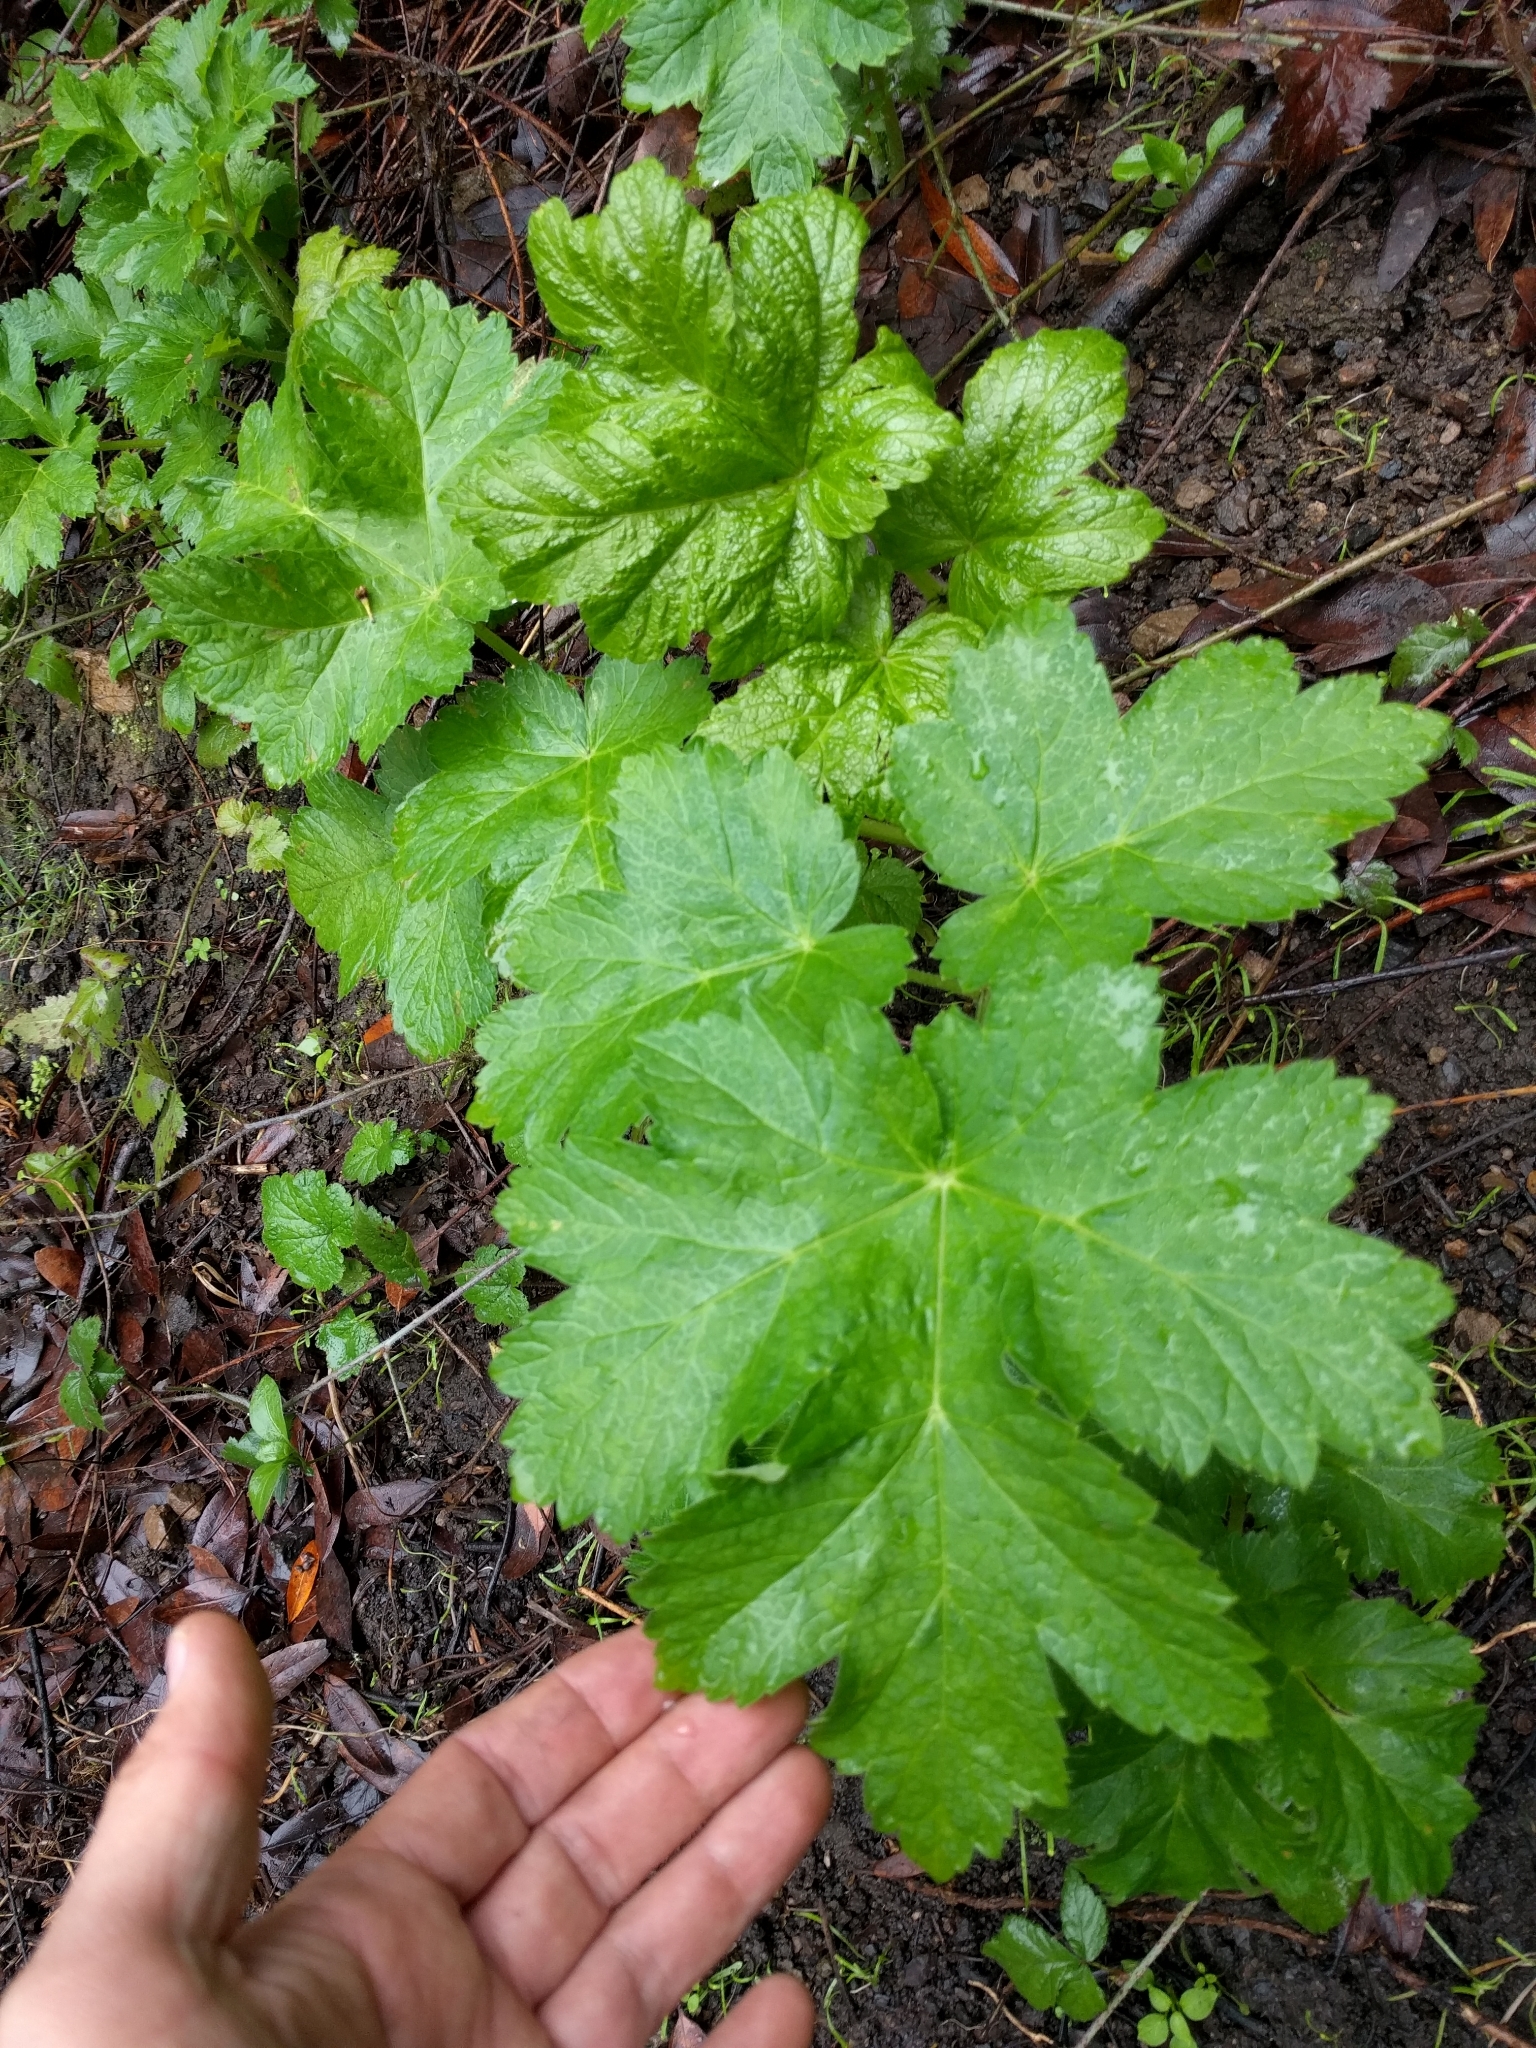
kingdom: Plantae
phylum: Tracheophyta
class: Magnoliopsida
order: Apiales
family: Apiaceae
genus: Heracleum
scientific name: Heracleum maximum
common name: American cow parsnip
